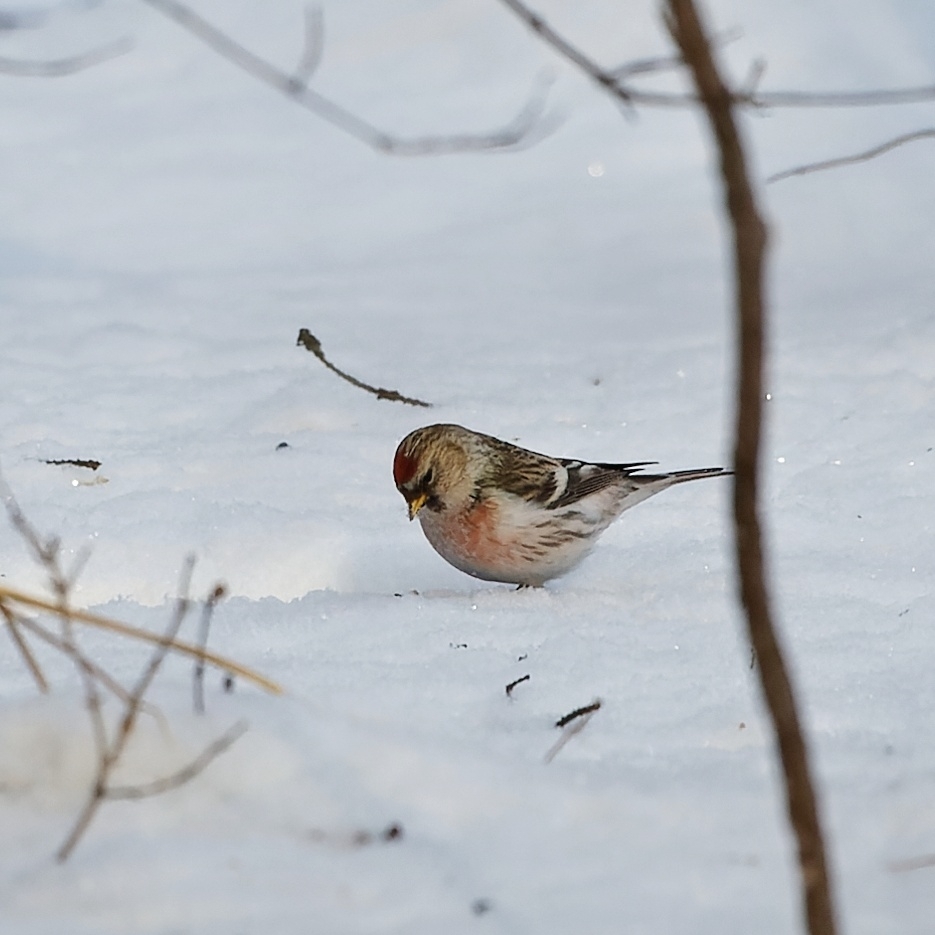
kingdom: Animalia
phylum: Chordata
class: Aves
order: Passeriformes
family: Fringillidae
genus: Acanthis
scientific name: Acanthis flammea
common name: Common redpoll
